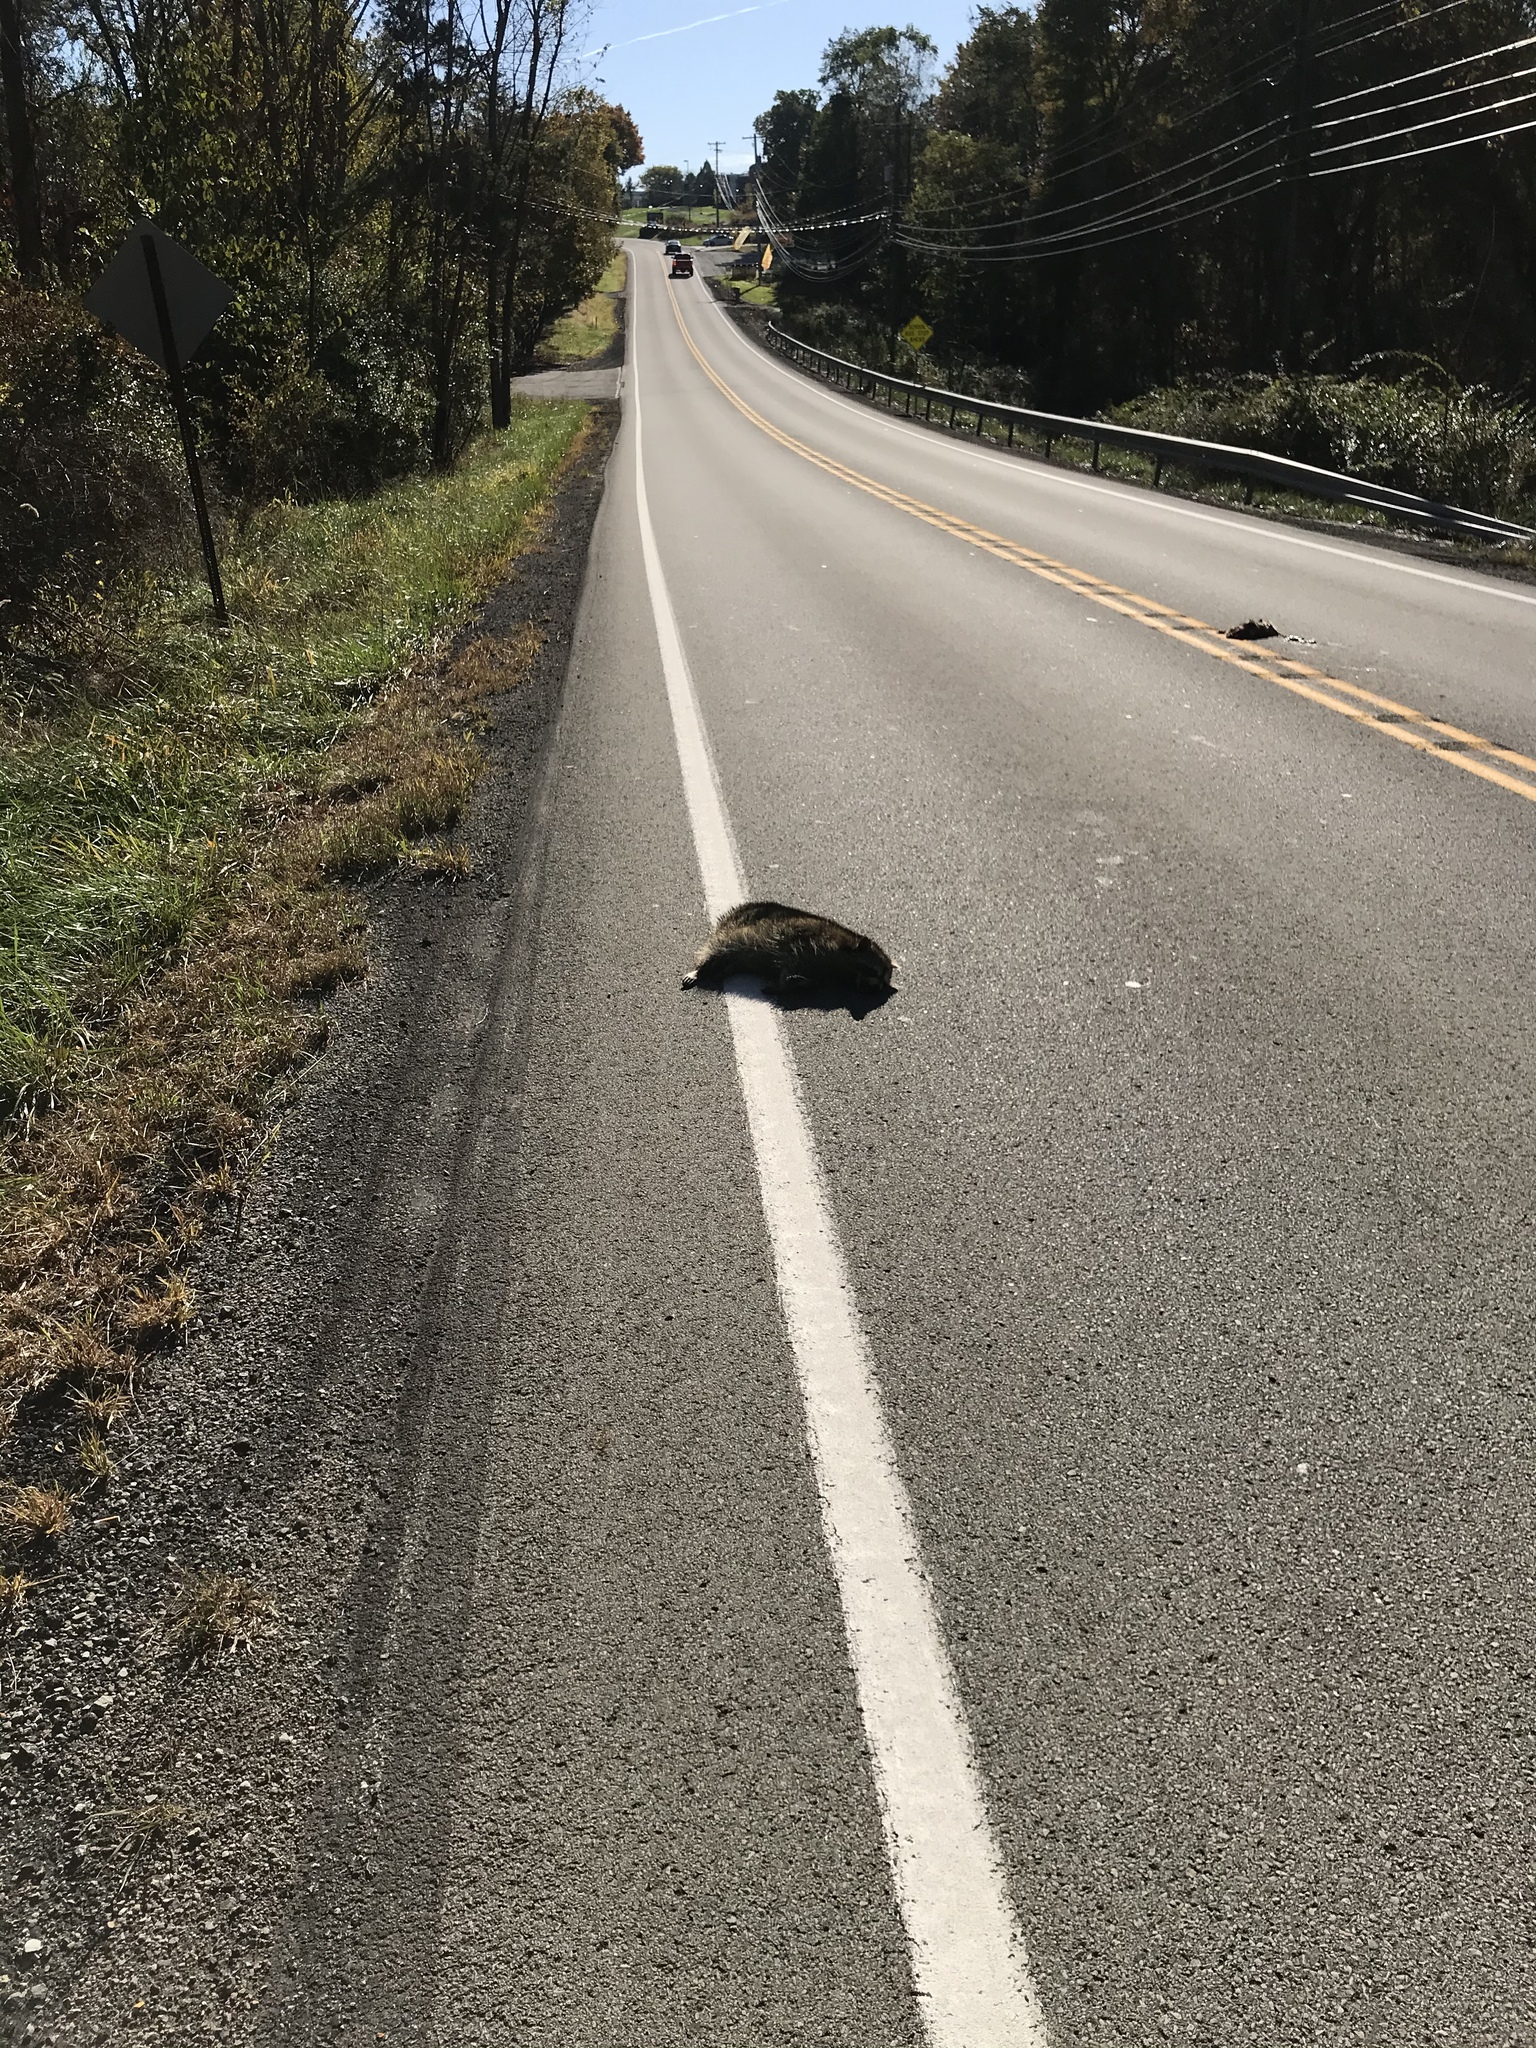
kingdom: Animalia
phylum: Chordata
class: Mammalia
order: Carnivora
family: Procyonidae
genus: Procyon
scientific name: Procyon lotor
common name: Raccoon
